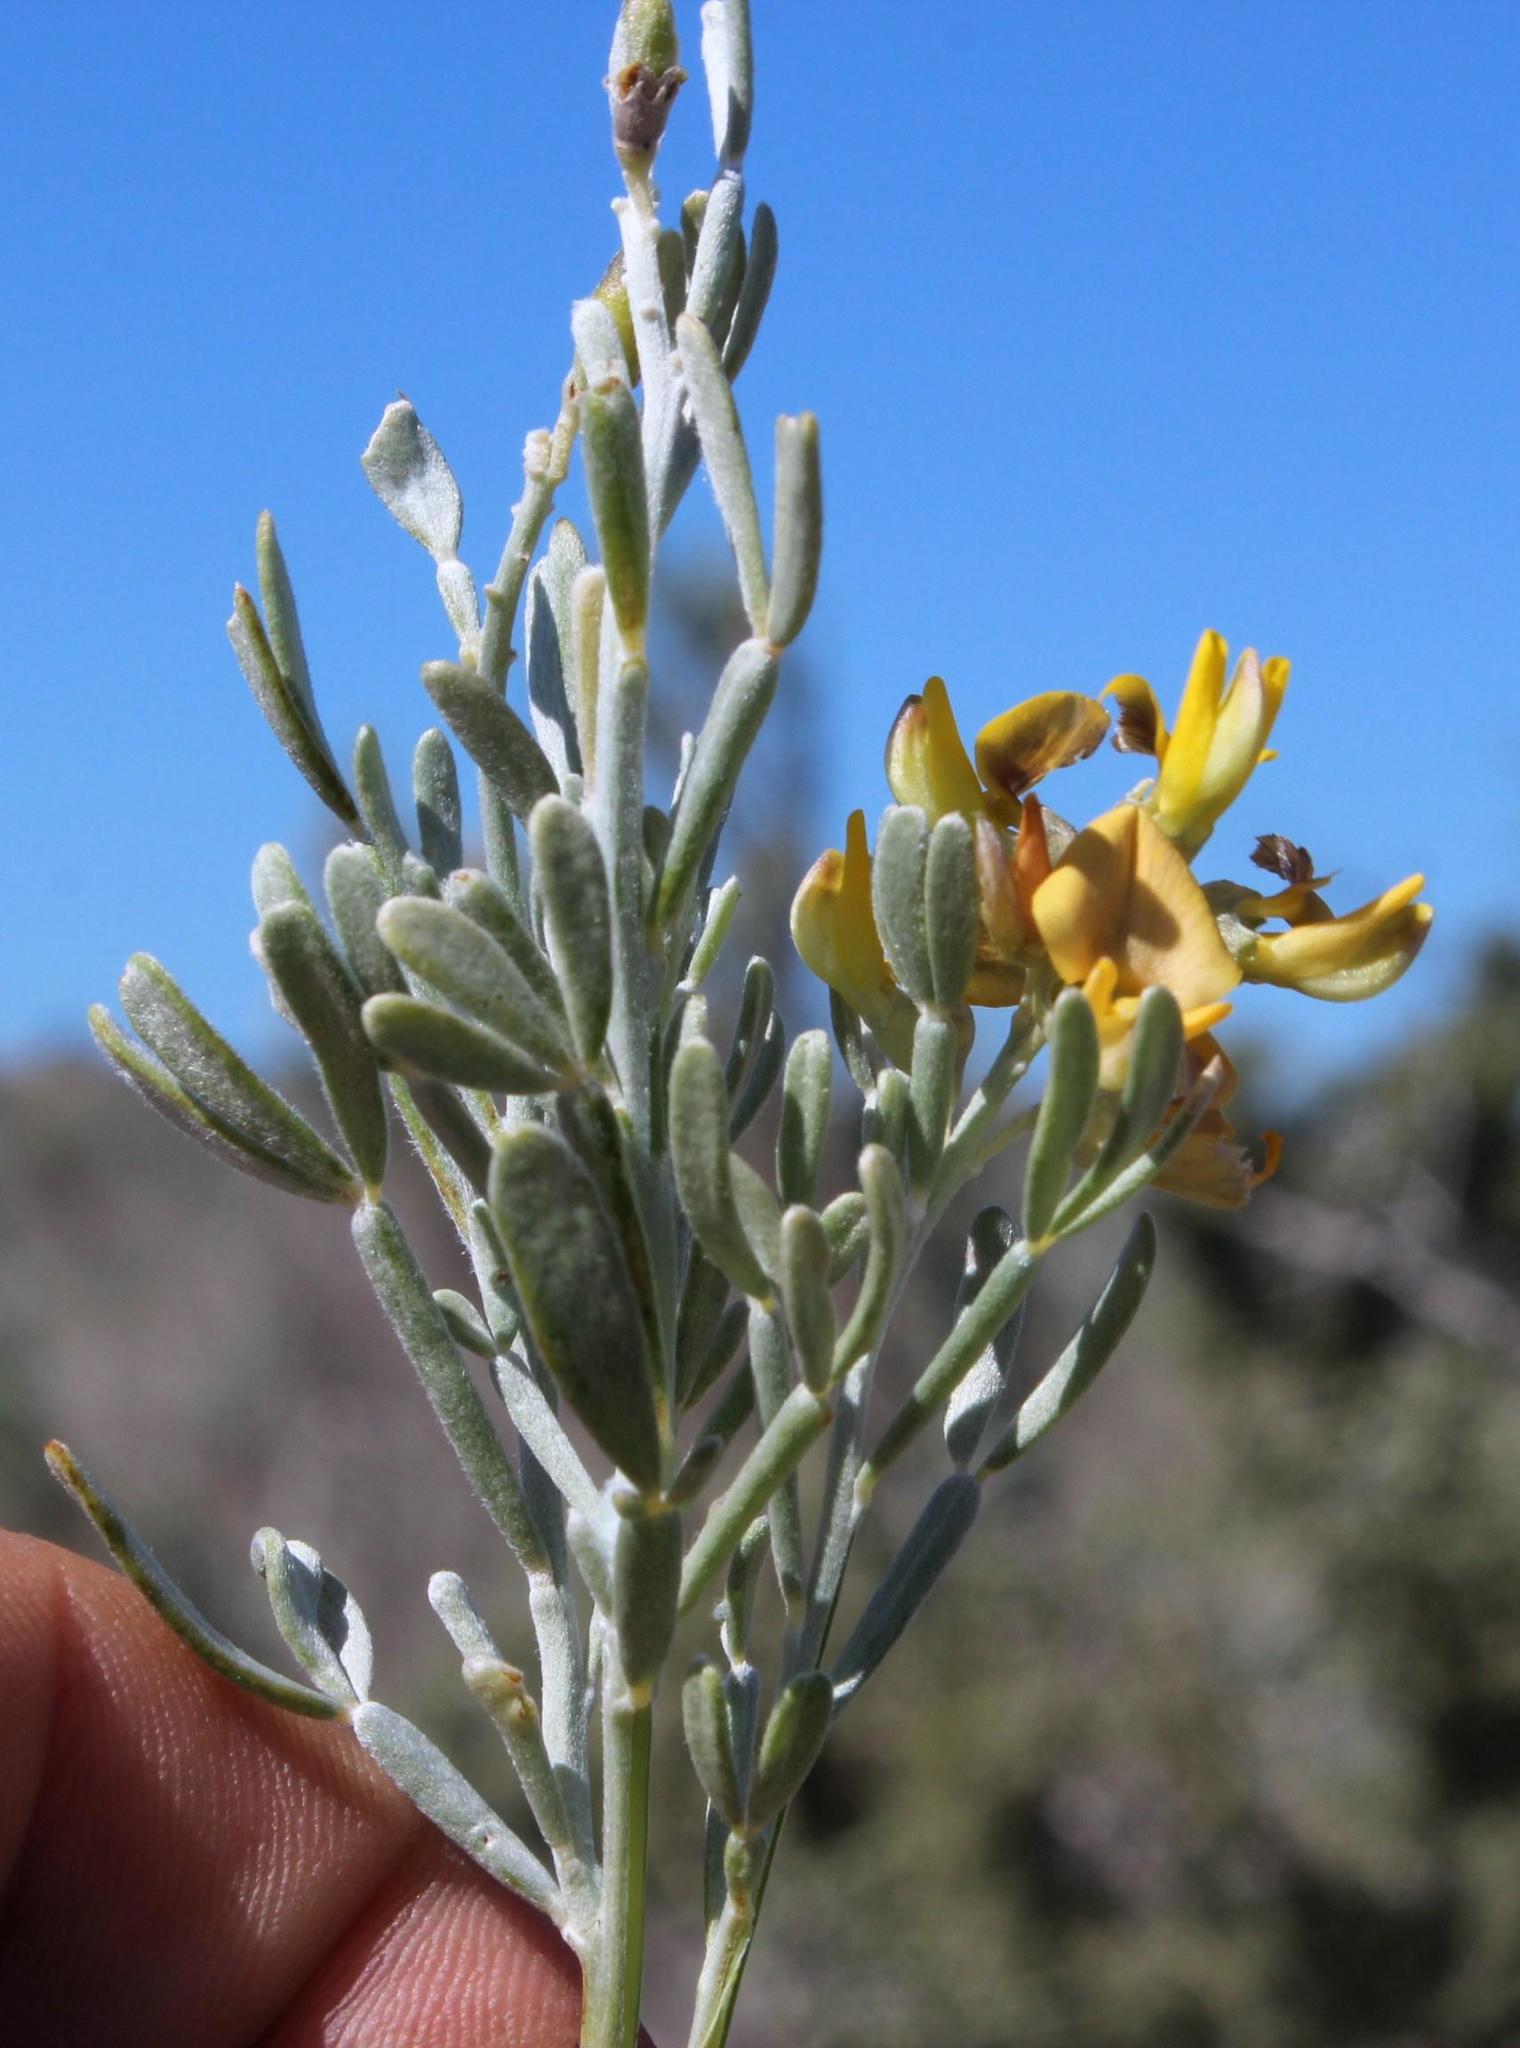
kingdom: Plantae
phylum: Tracheophyta
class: Magnoliopsida
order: Fabales
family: Fabaceae
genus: Calobota
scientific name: Calobota angustifolia
